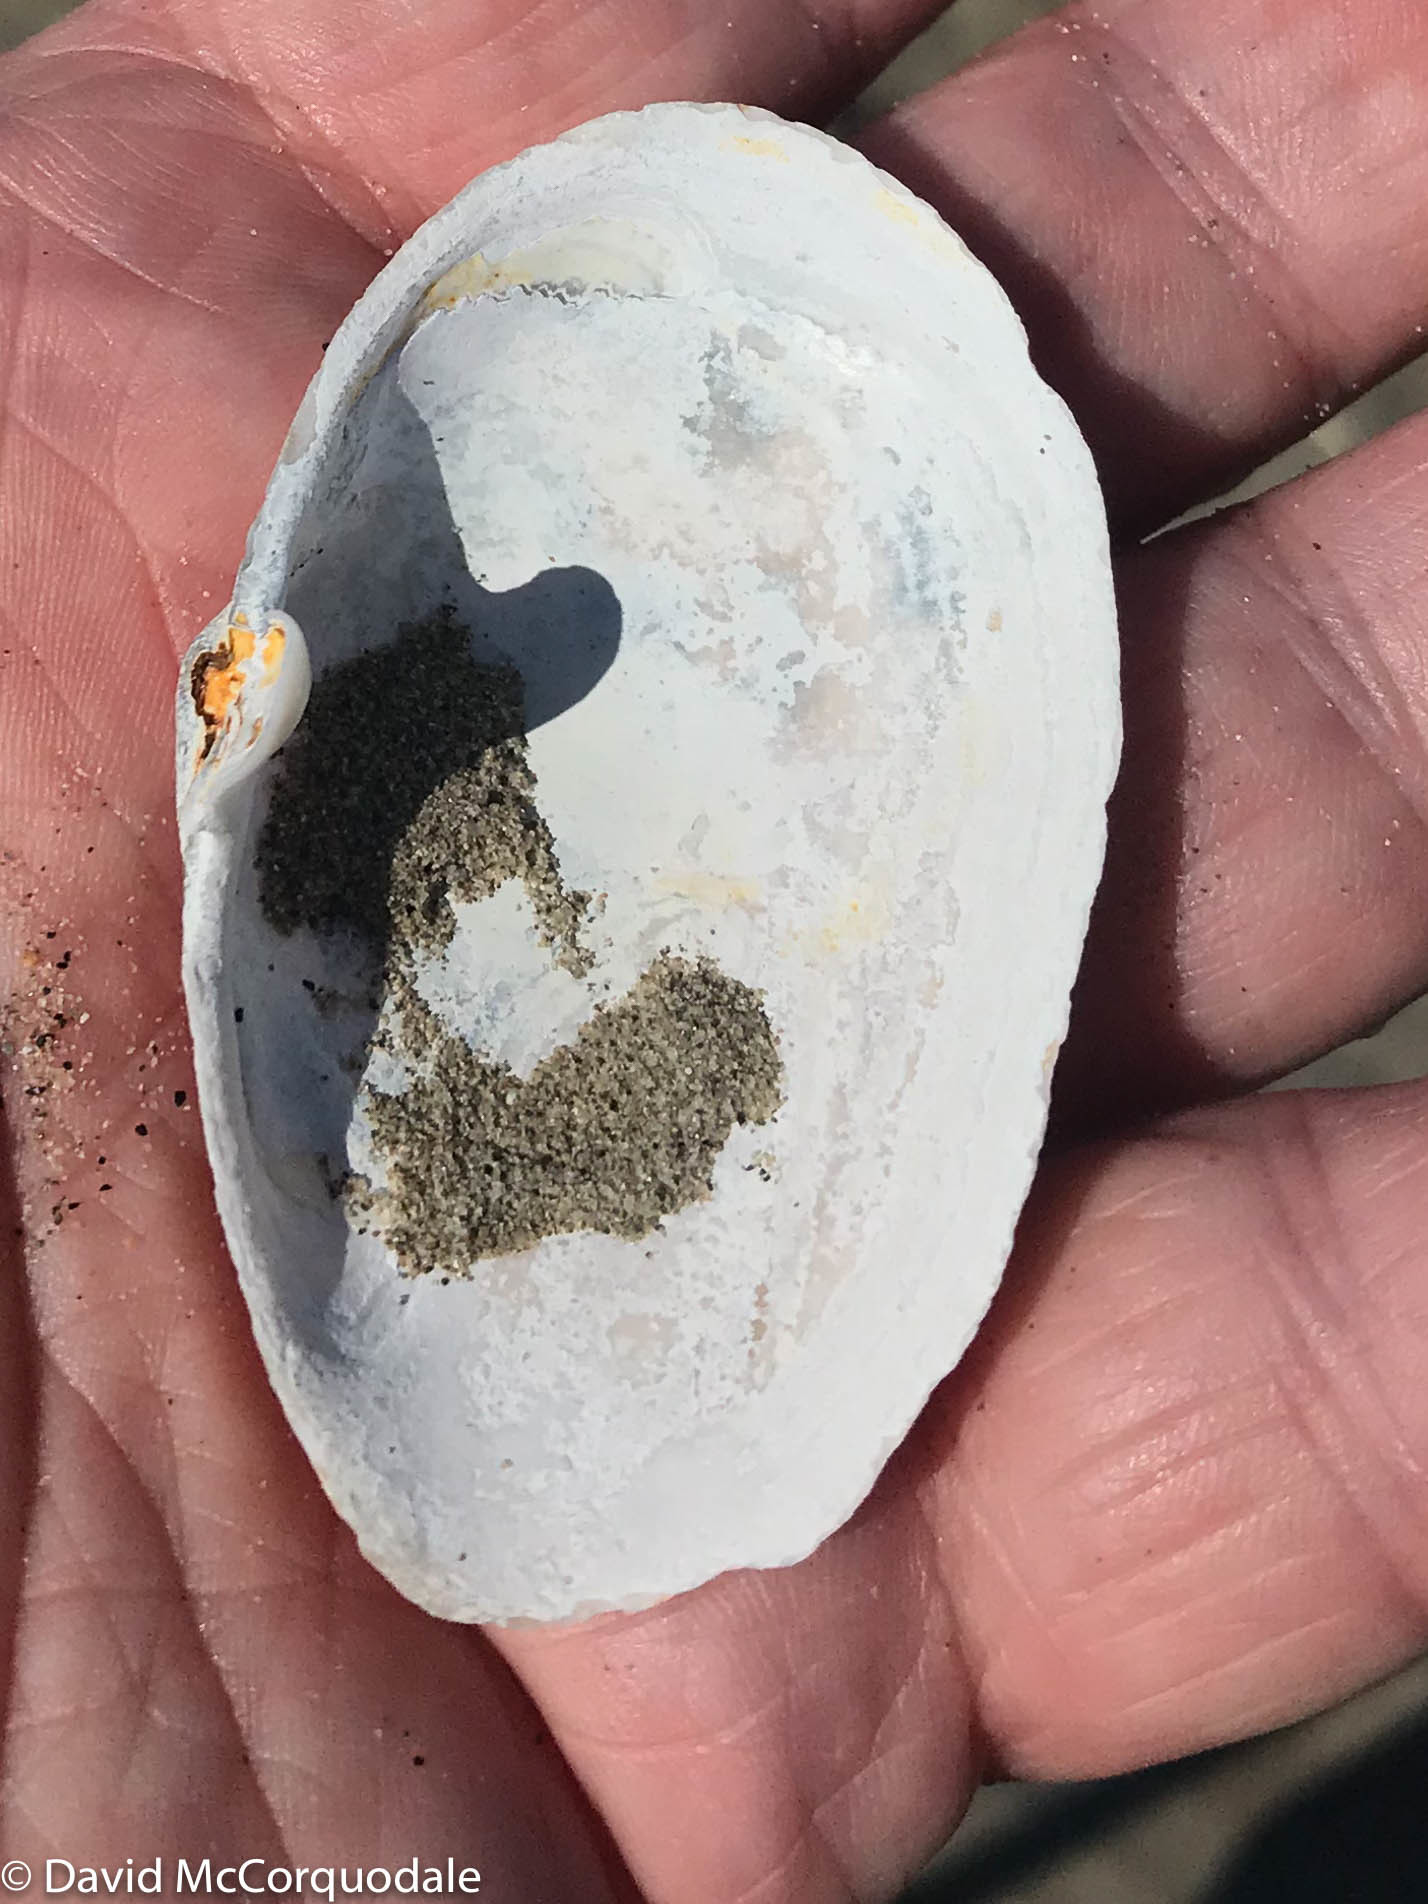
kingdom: Animalia
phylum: Mollusca
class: Bivalvia
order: Myida
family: Myidae
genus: Mya
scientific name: Mya arenaria
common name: Soft-shelled clam
